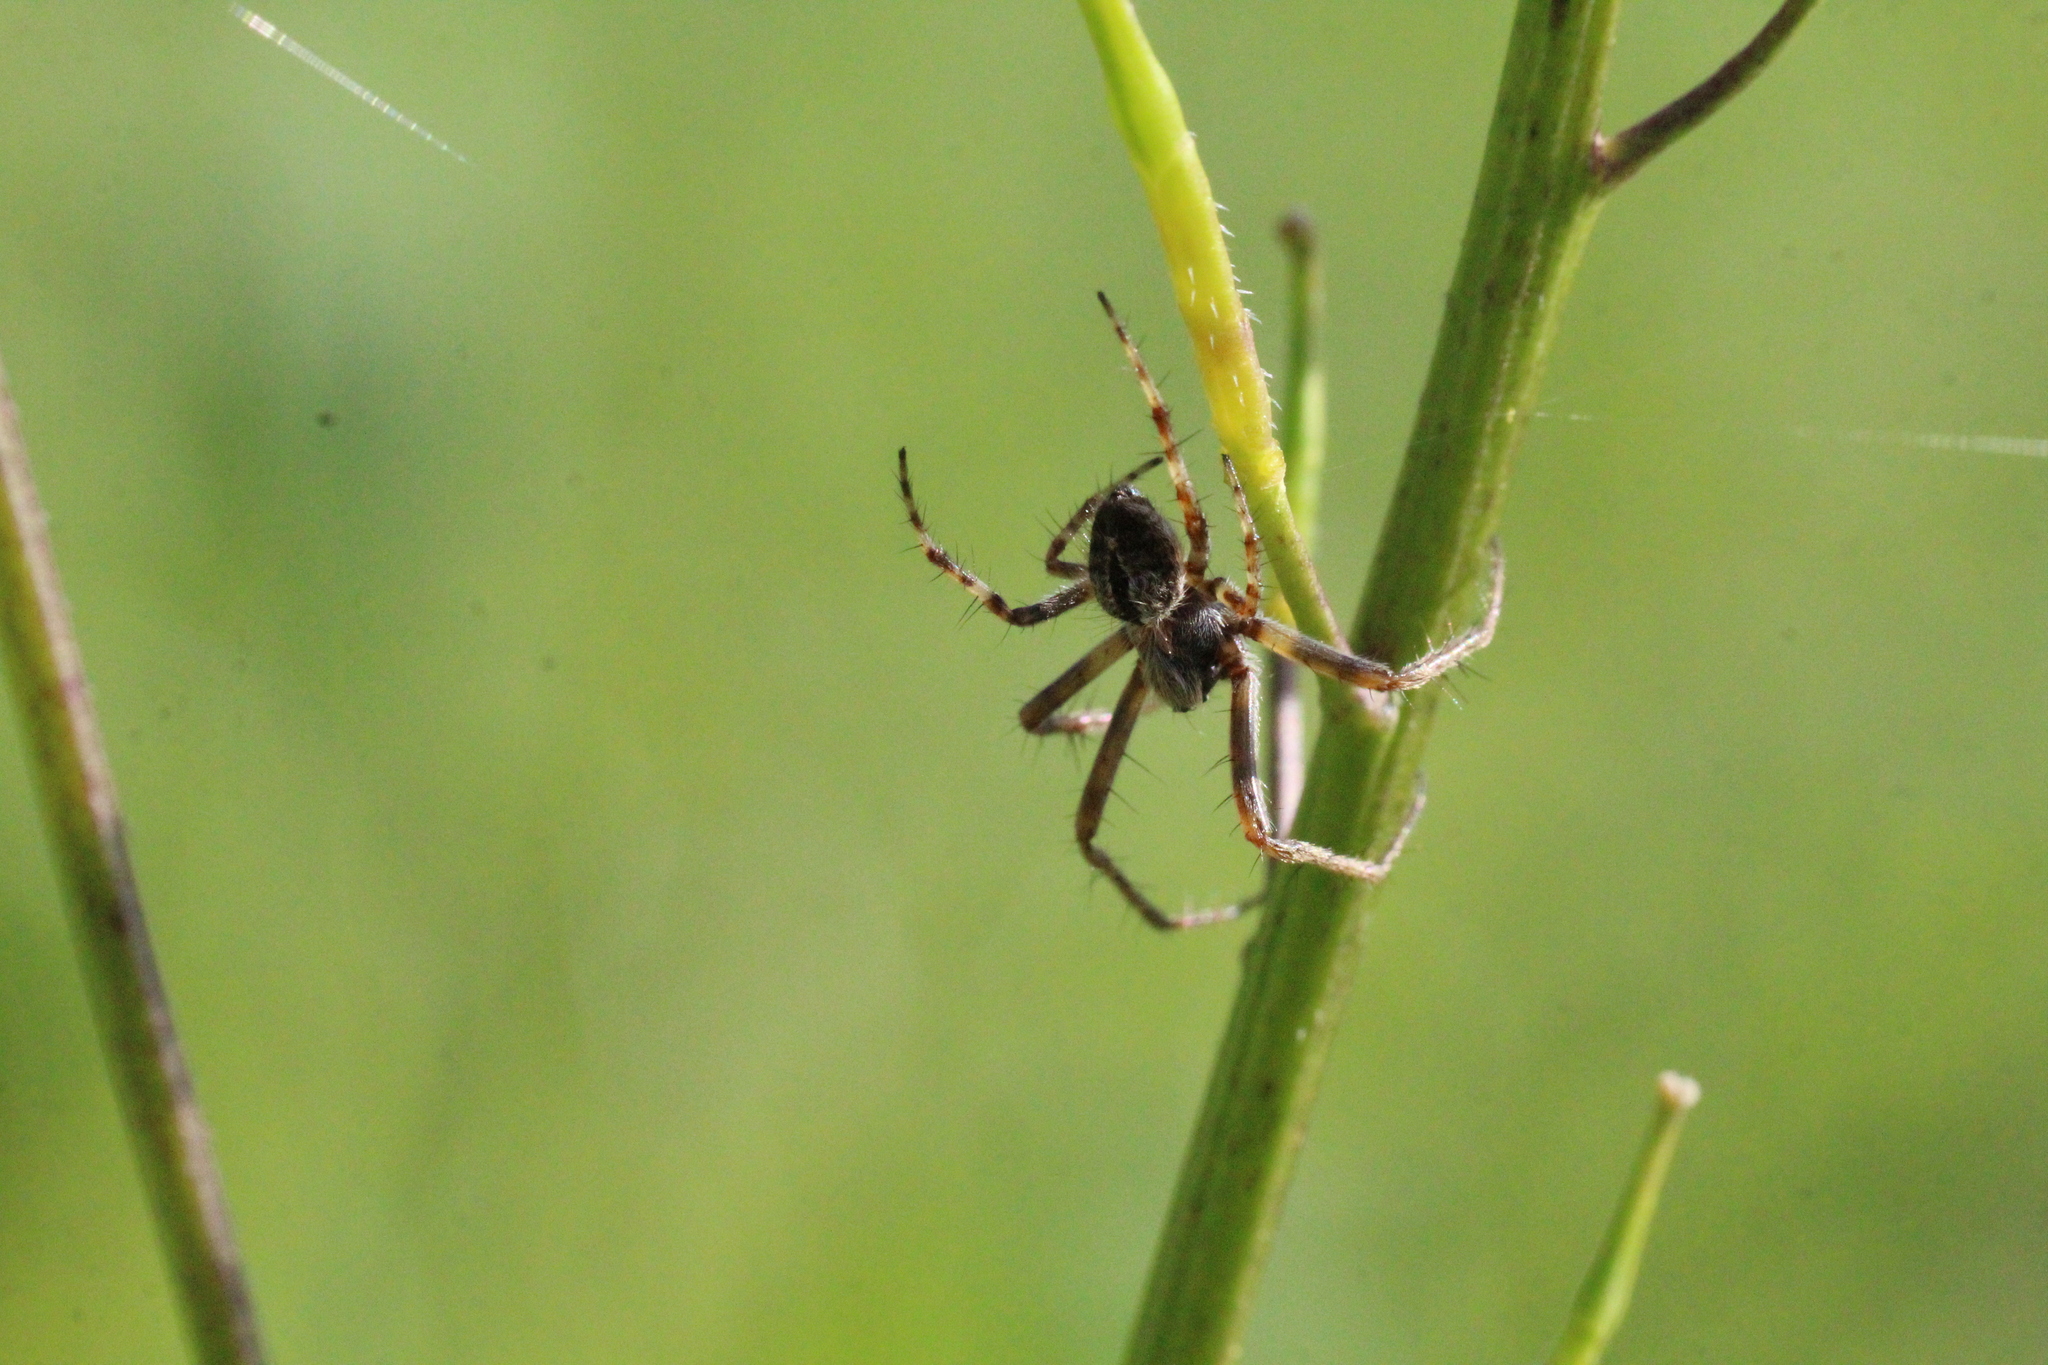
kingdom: Animalia
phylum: Arthropoda
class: Arachnida
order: Araneae
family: Araneidae
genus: Agalenatea
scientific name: Agalenatea redii
